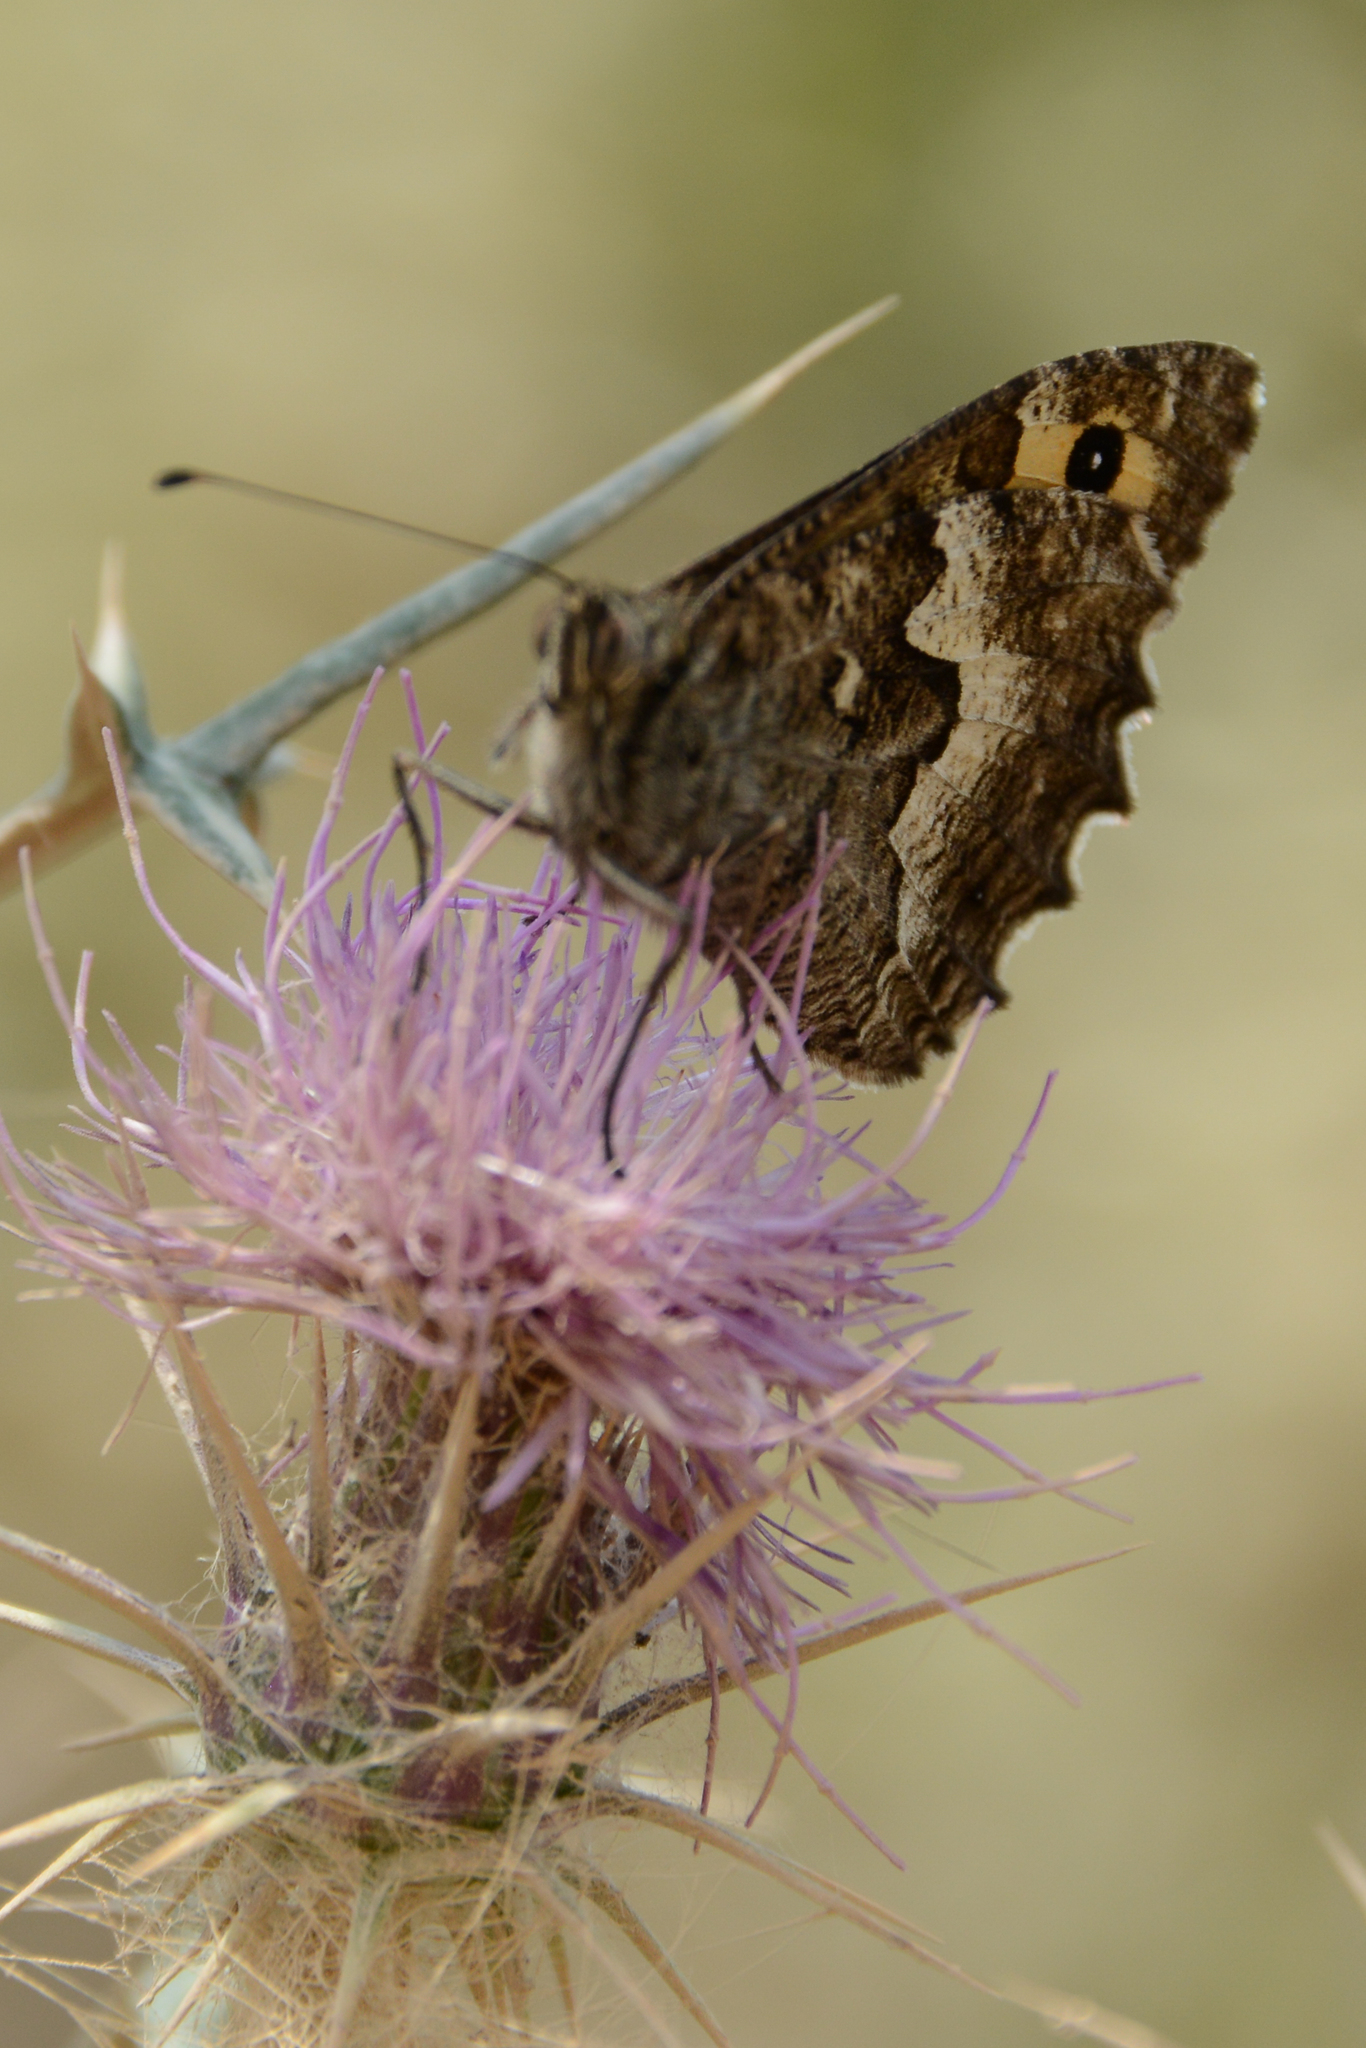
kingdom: Animalia
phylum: Arthropoda
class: Insecta
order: Lepidoptera
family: Nymphalidae
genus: Hipparchia
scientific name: Hipparchia cretica
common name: Cretan grayling
